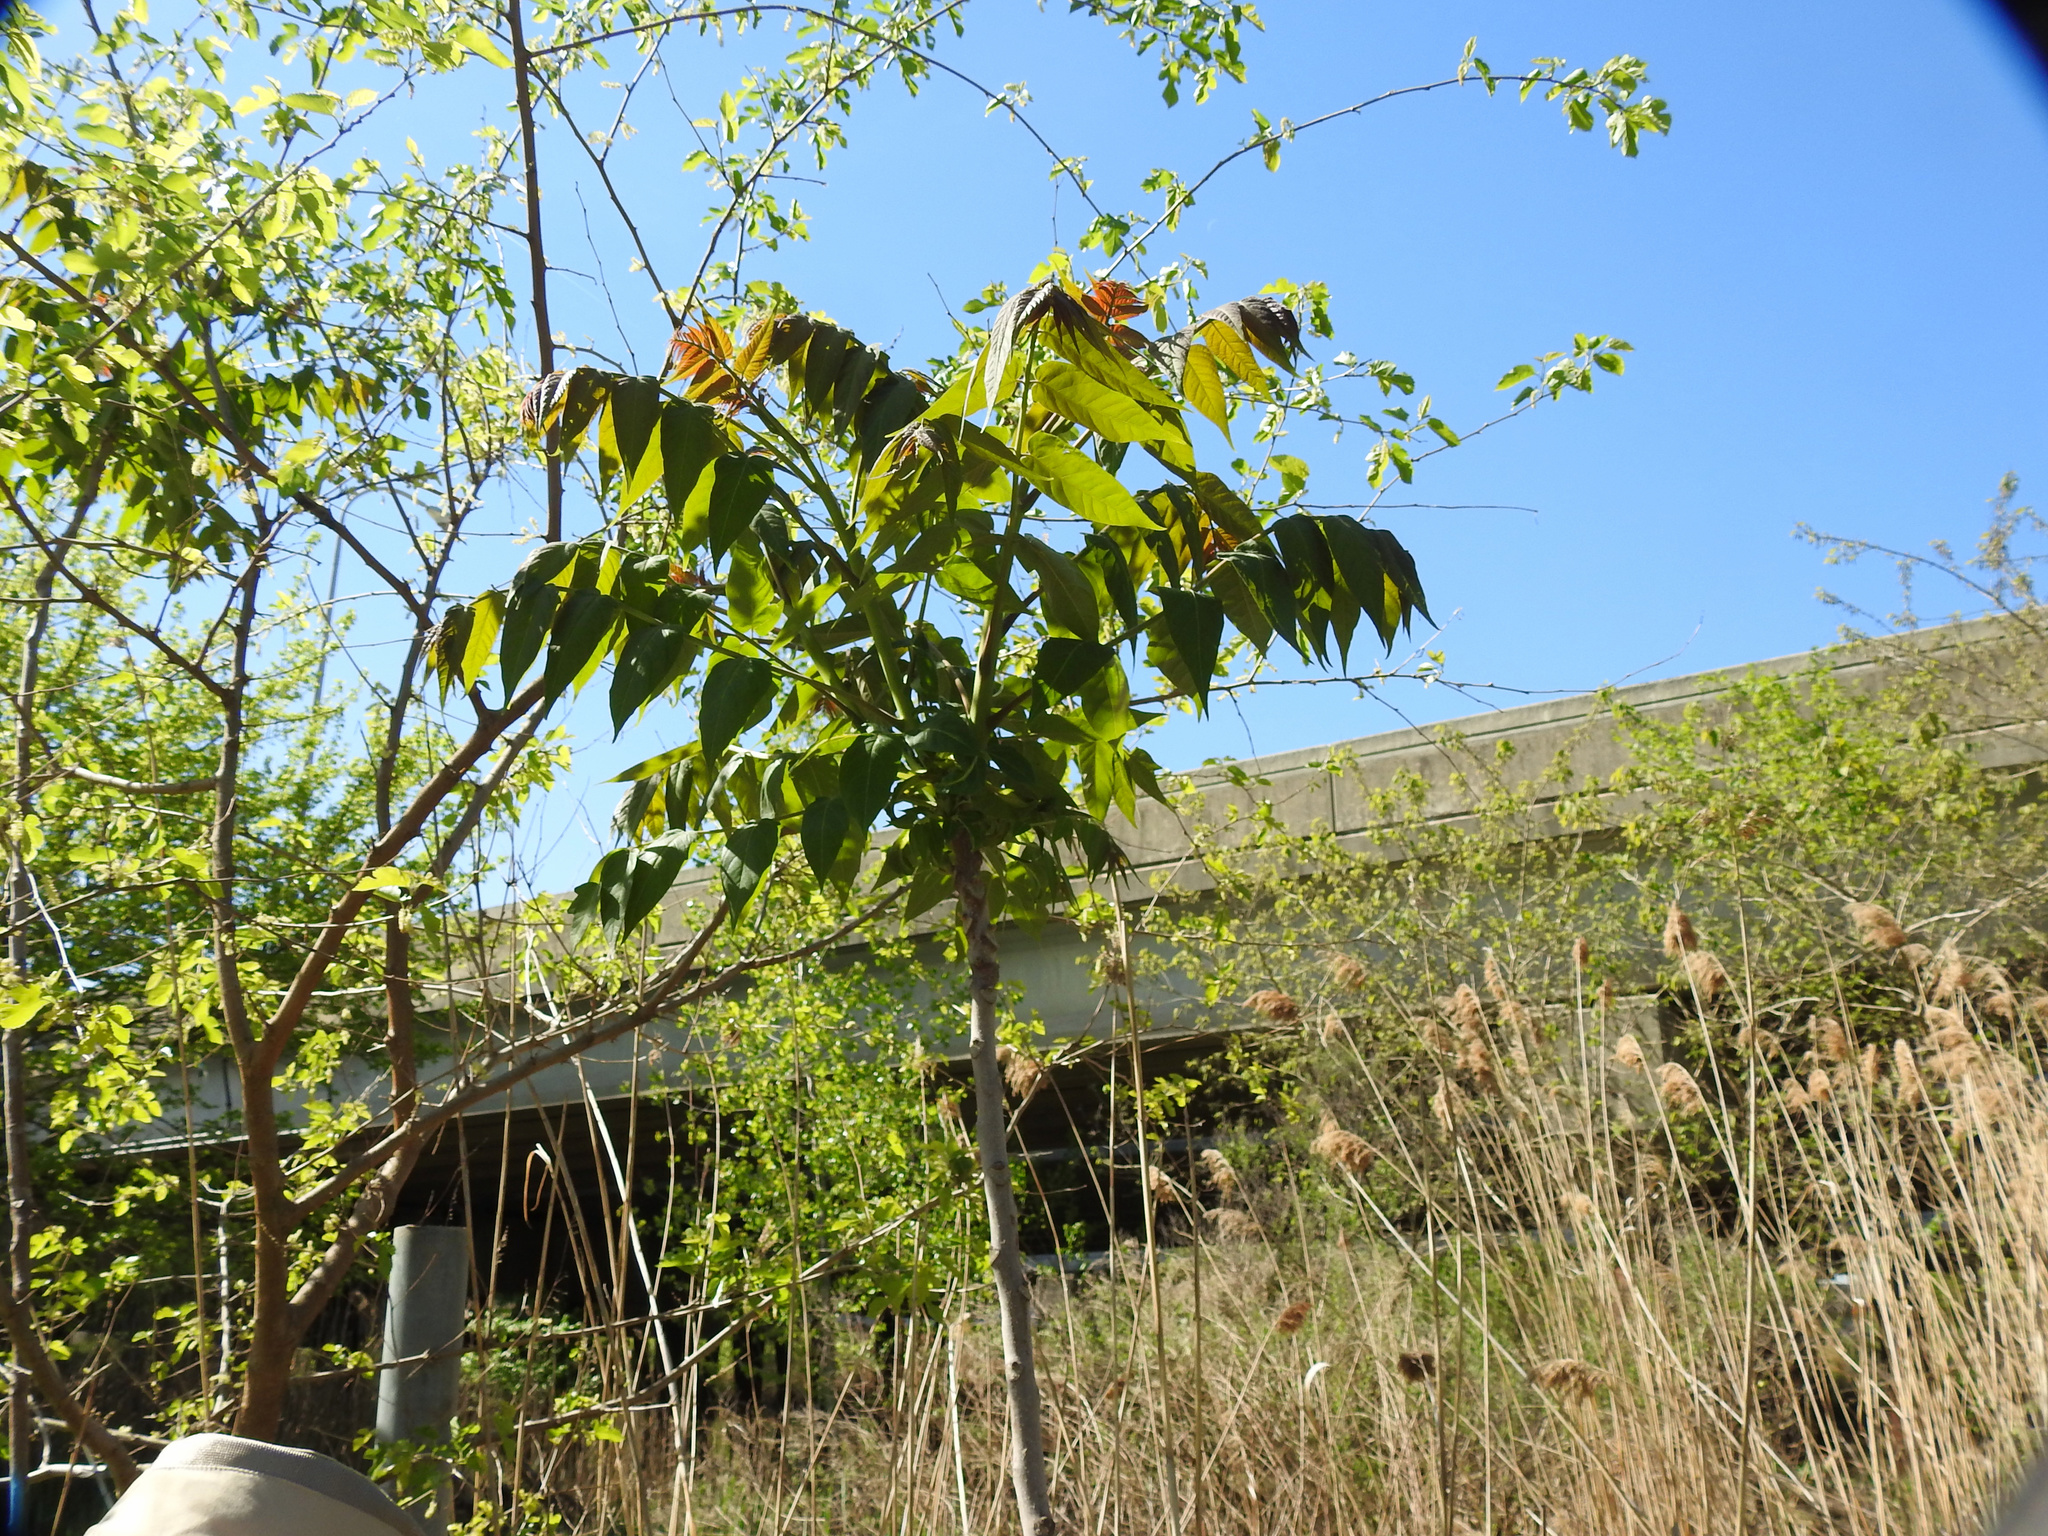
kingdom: Plantae
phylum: Tracheophyta
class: Magnoliopsida
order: Sapindales
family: Simaroubaceae
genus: Ailanthus
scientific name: Ailanthus altissima
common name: Tree-of-heaven
